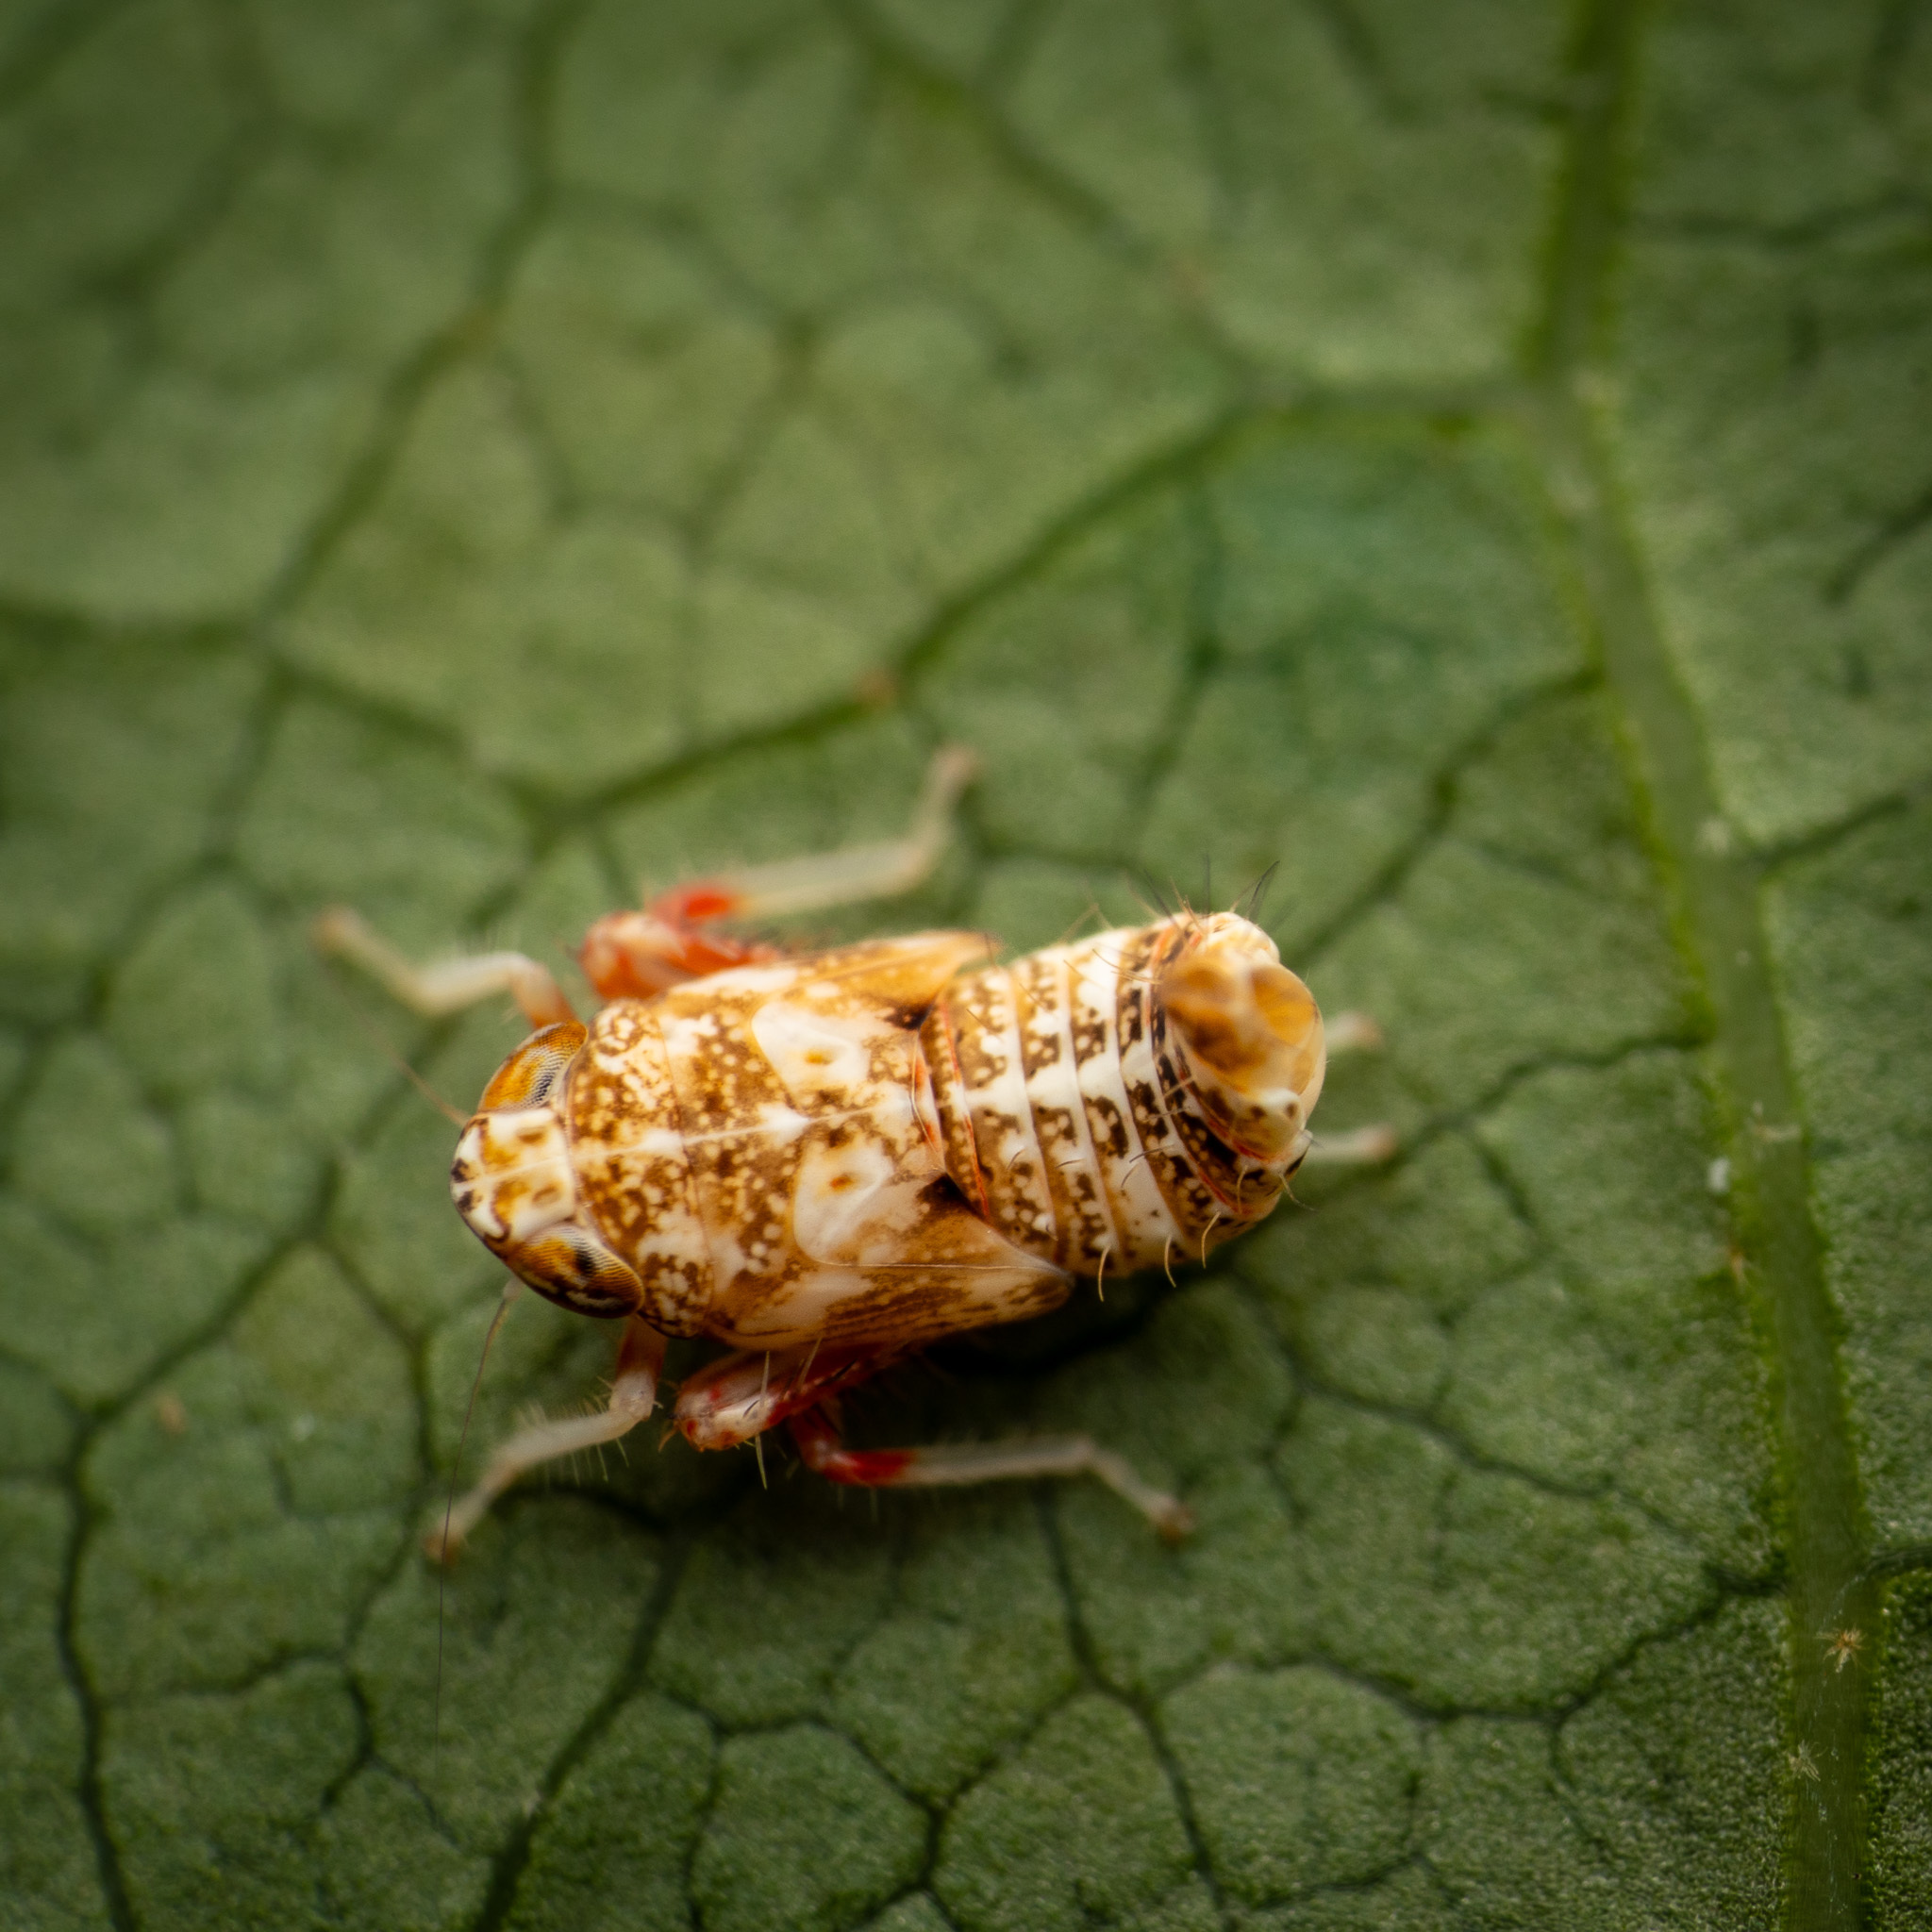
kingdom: Animalia
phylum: Arthropoda
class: Insecta
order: Hemiptera
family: Cicadellidae
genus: Orientus
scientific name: Orientus ishidae
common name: Japanese leafhopper
